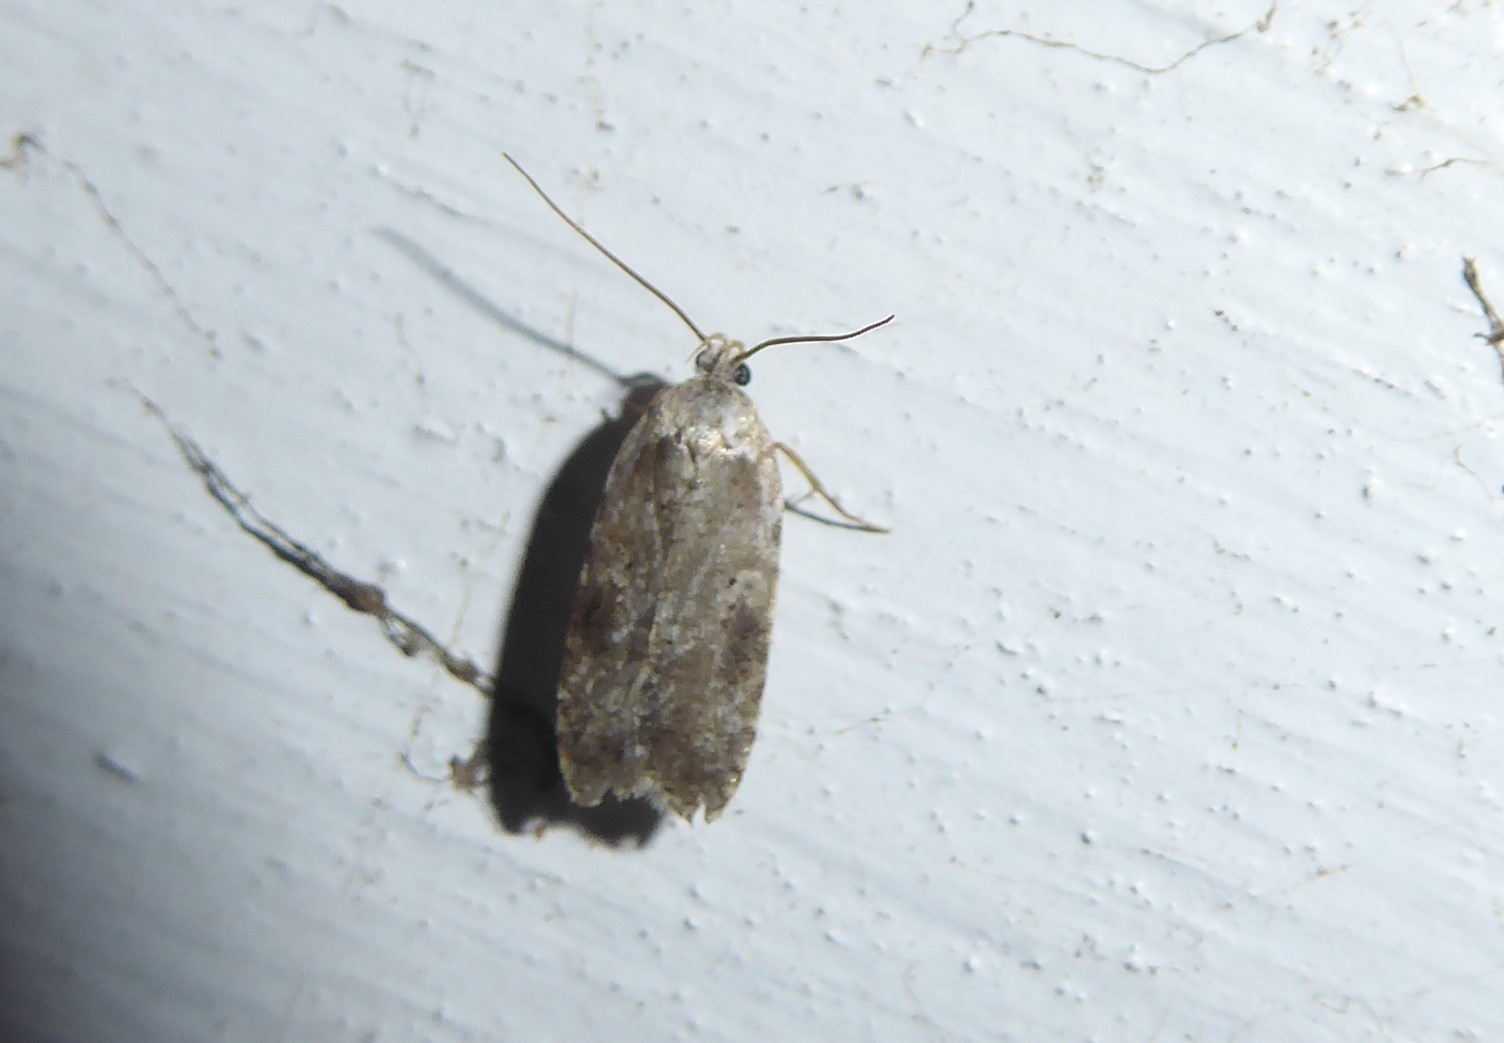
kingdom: Animalia
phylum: Arthropoda
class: Insecta
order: Lepidoptera
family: Depressariidae
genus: Agonopterix
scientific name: Agonopterix alstroemeriana
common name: Moth
